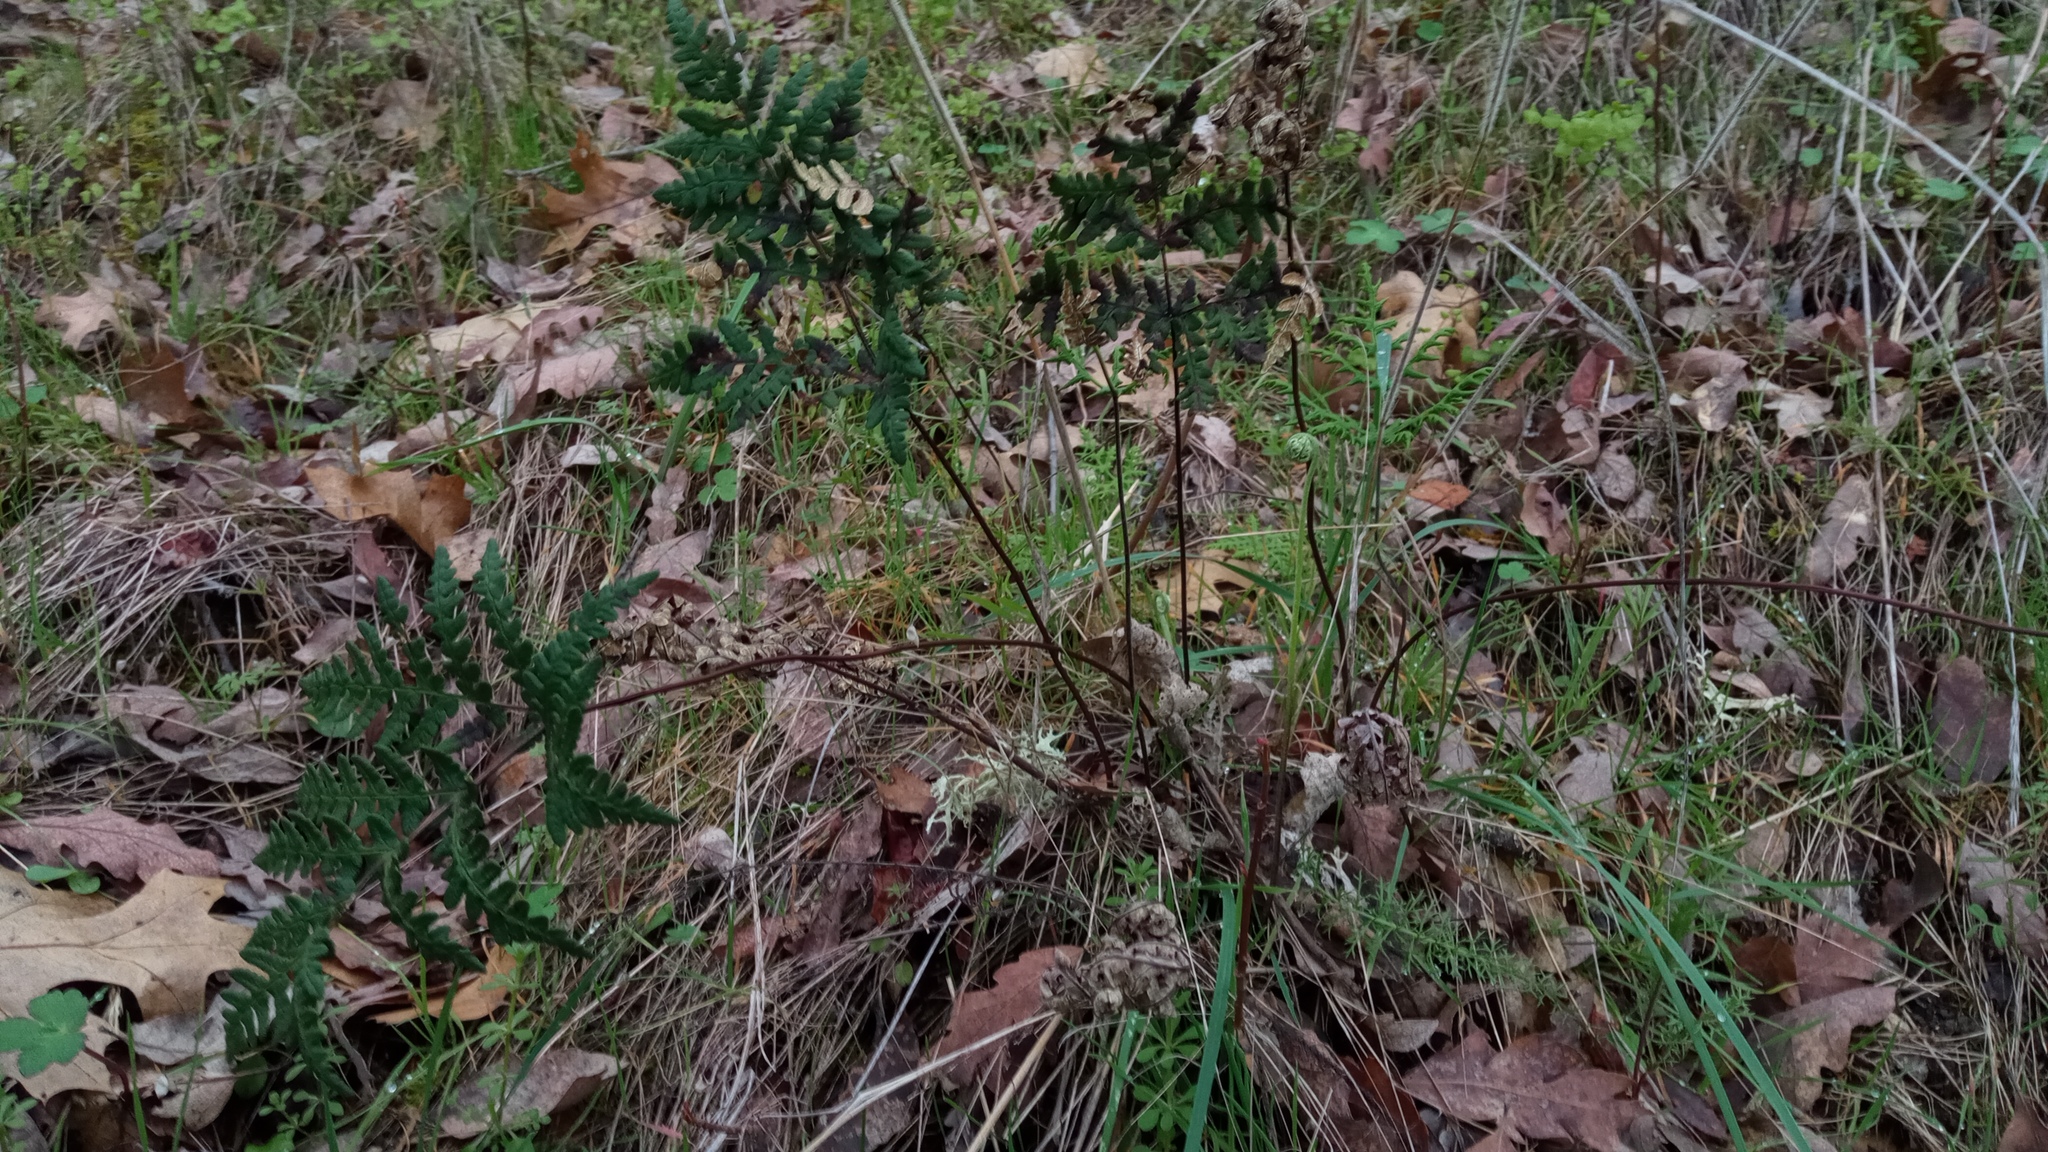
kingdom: Plantae
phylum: Tracheophyta
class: Polypodiopsida
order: Polypodiales
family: Pteridaceae
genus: Pentagramma
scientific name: Pentagramma triangularis
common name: Gold fern
